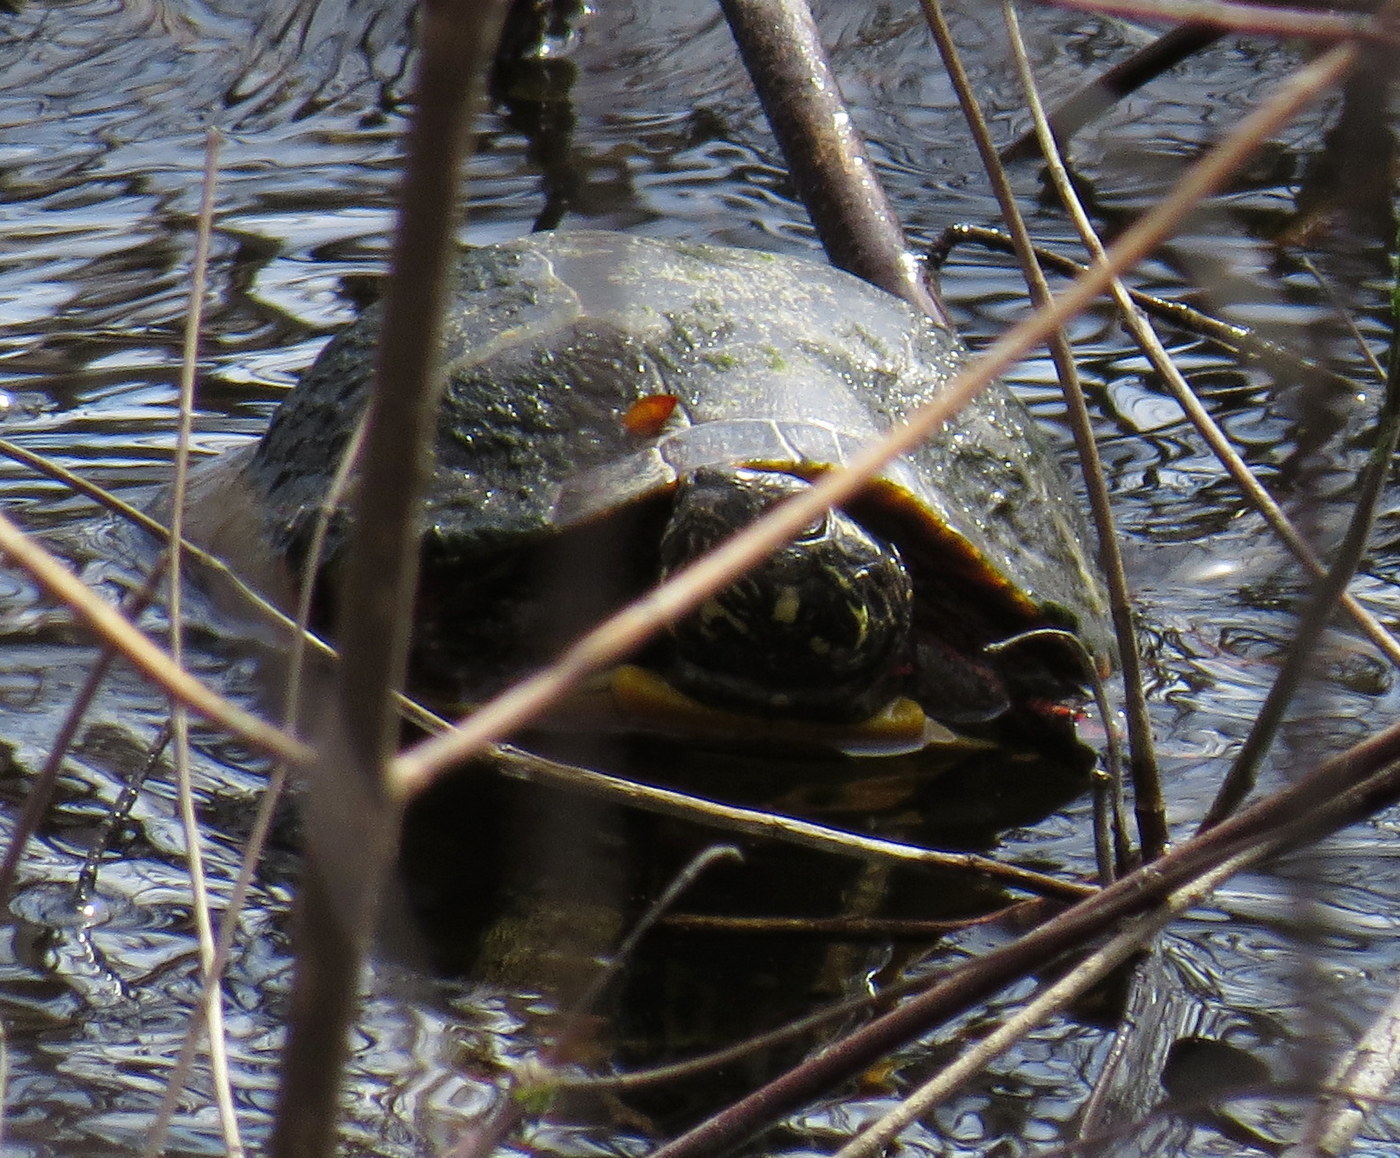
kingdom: Animalia
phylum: Chordata
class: Testudines
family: Emydidae
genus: Chrysemys
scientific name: Chrysemys picta
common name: Painted turtle
